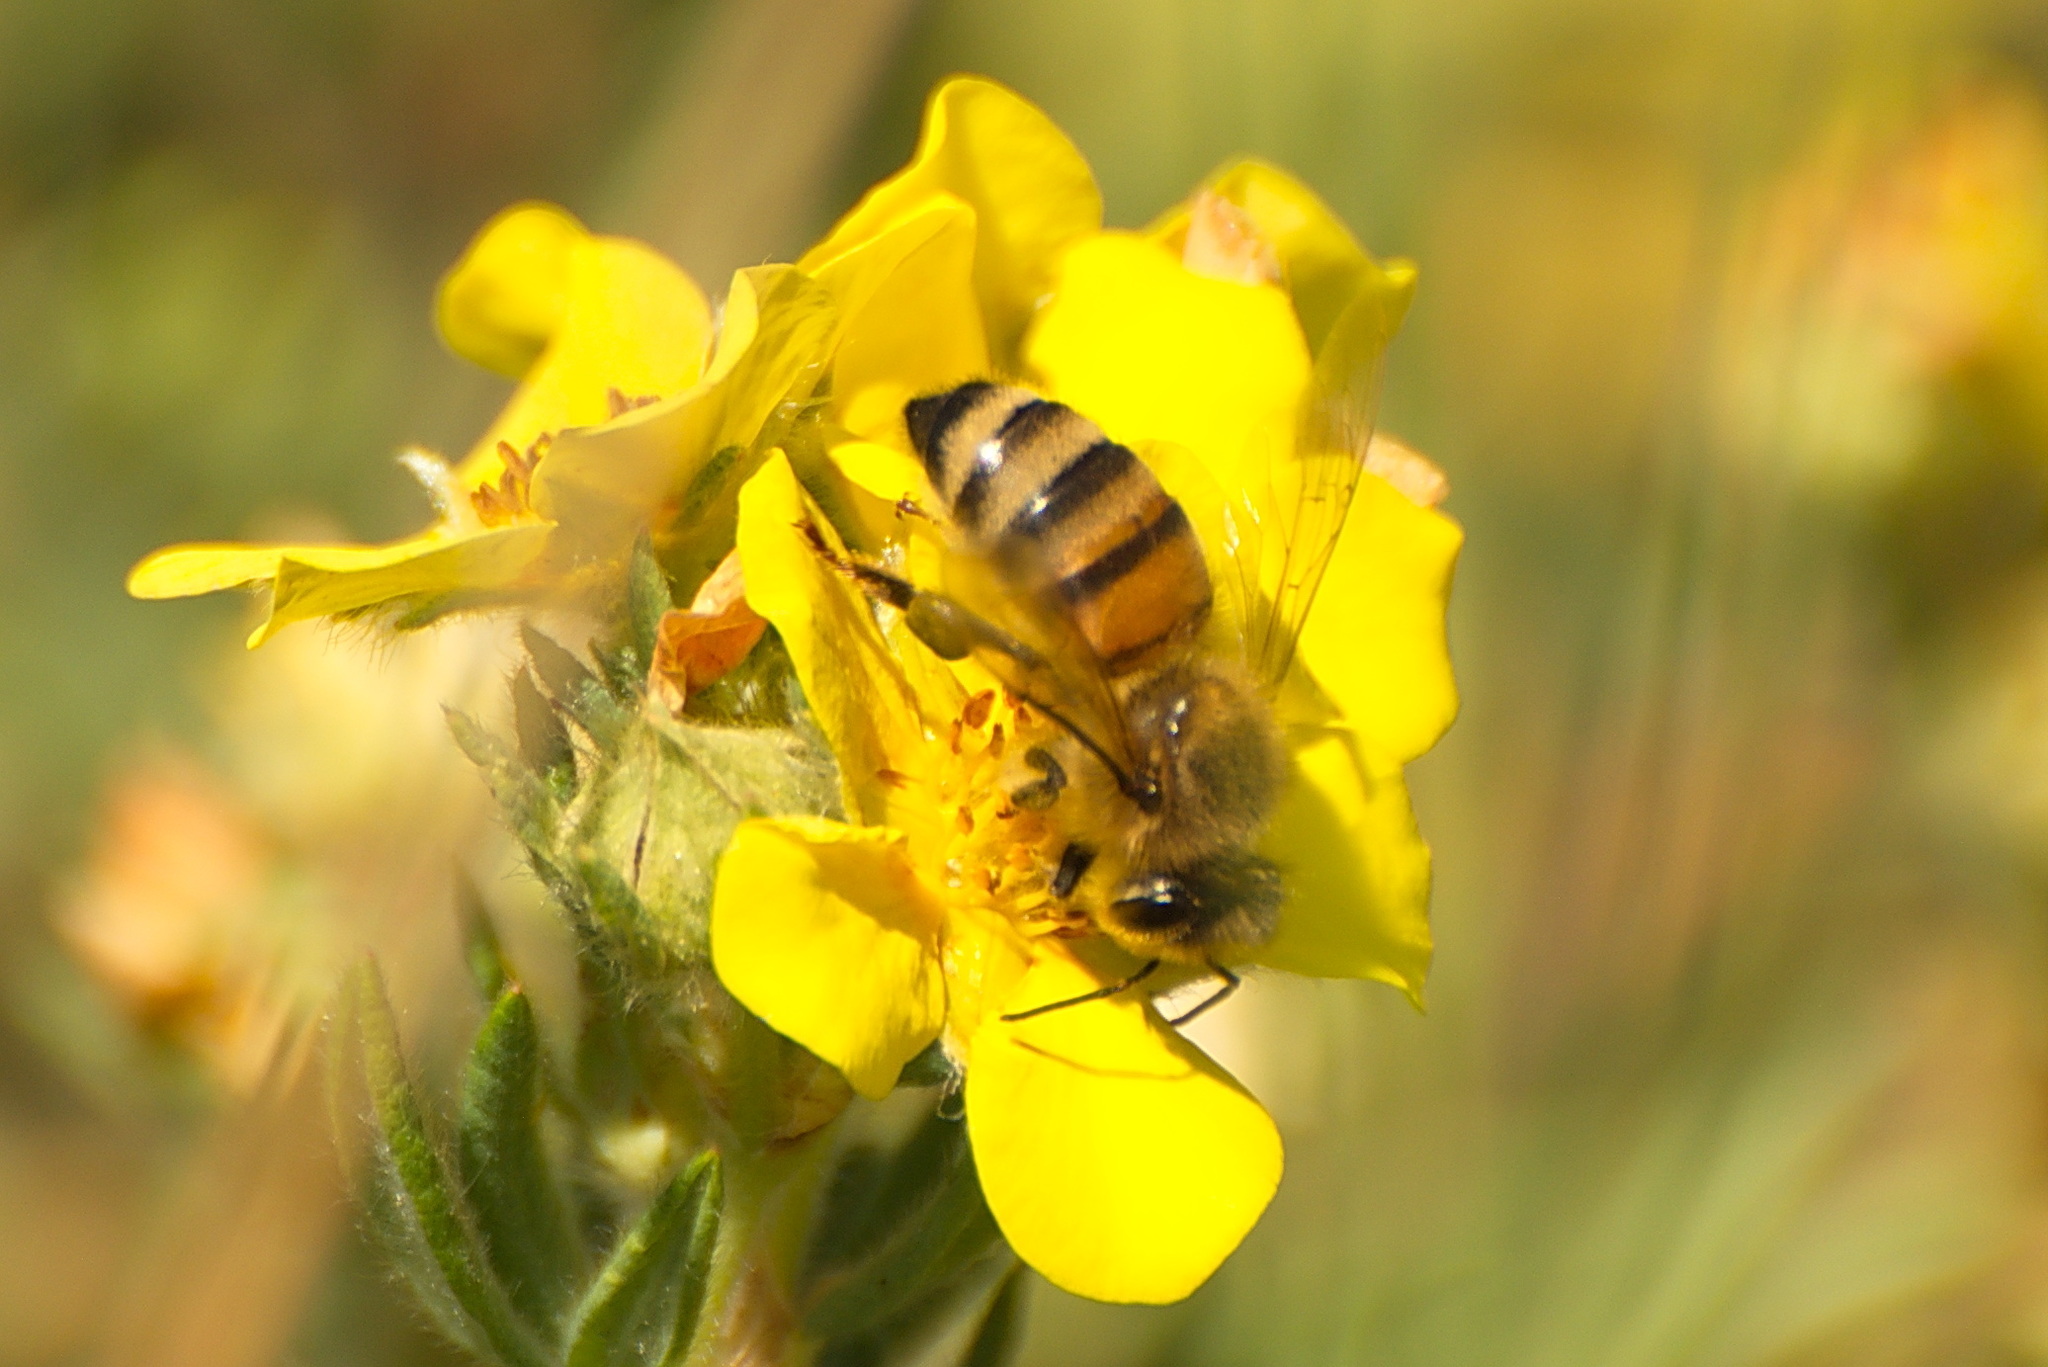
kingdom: Animalia
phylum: Arthropoda
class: Insecta
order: Hymenoptera
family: Apidae
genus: Apis
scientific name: Apis mellifera
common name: Honey bee
